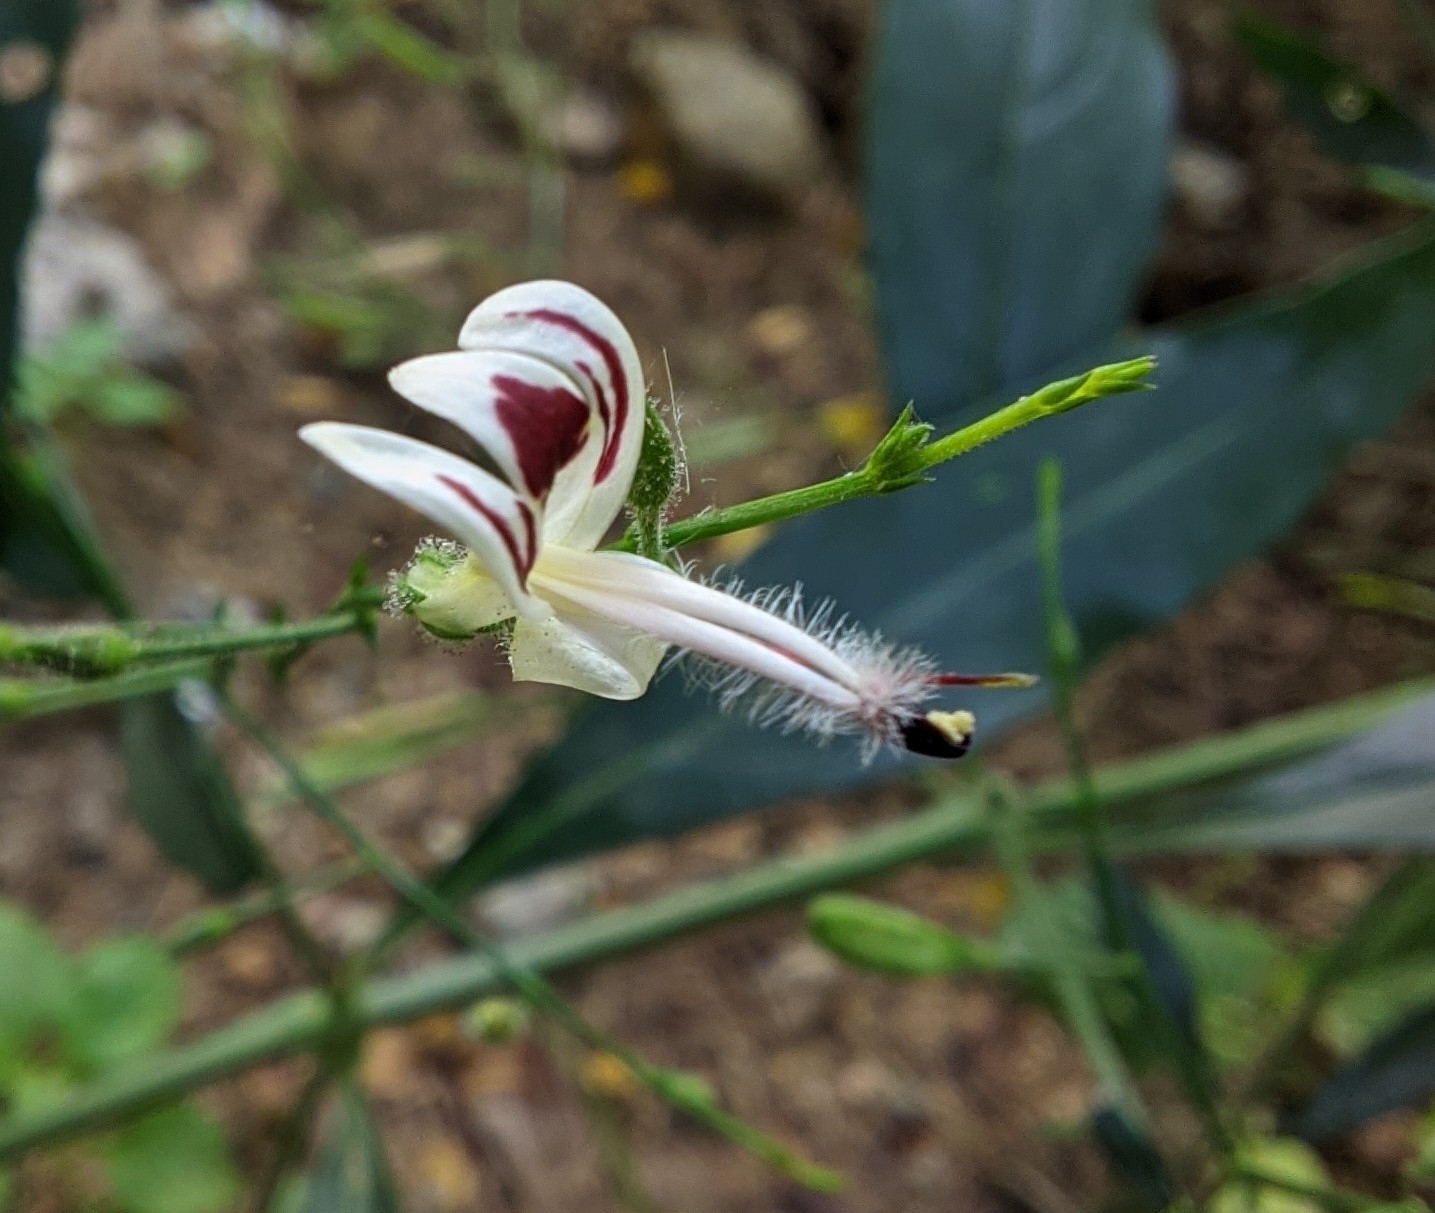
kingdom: Plantae
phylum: Tracheophyta
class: Magnoliopsida
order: Lamiales
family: Acanthaceae
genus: Andrographis
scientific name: Andrographis paniculata
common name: Green chireta
